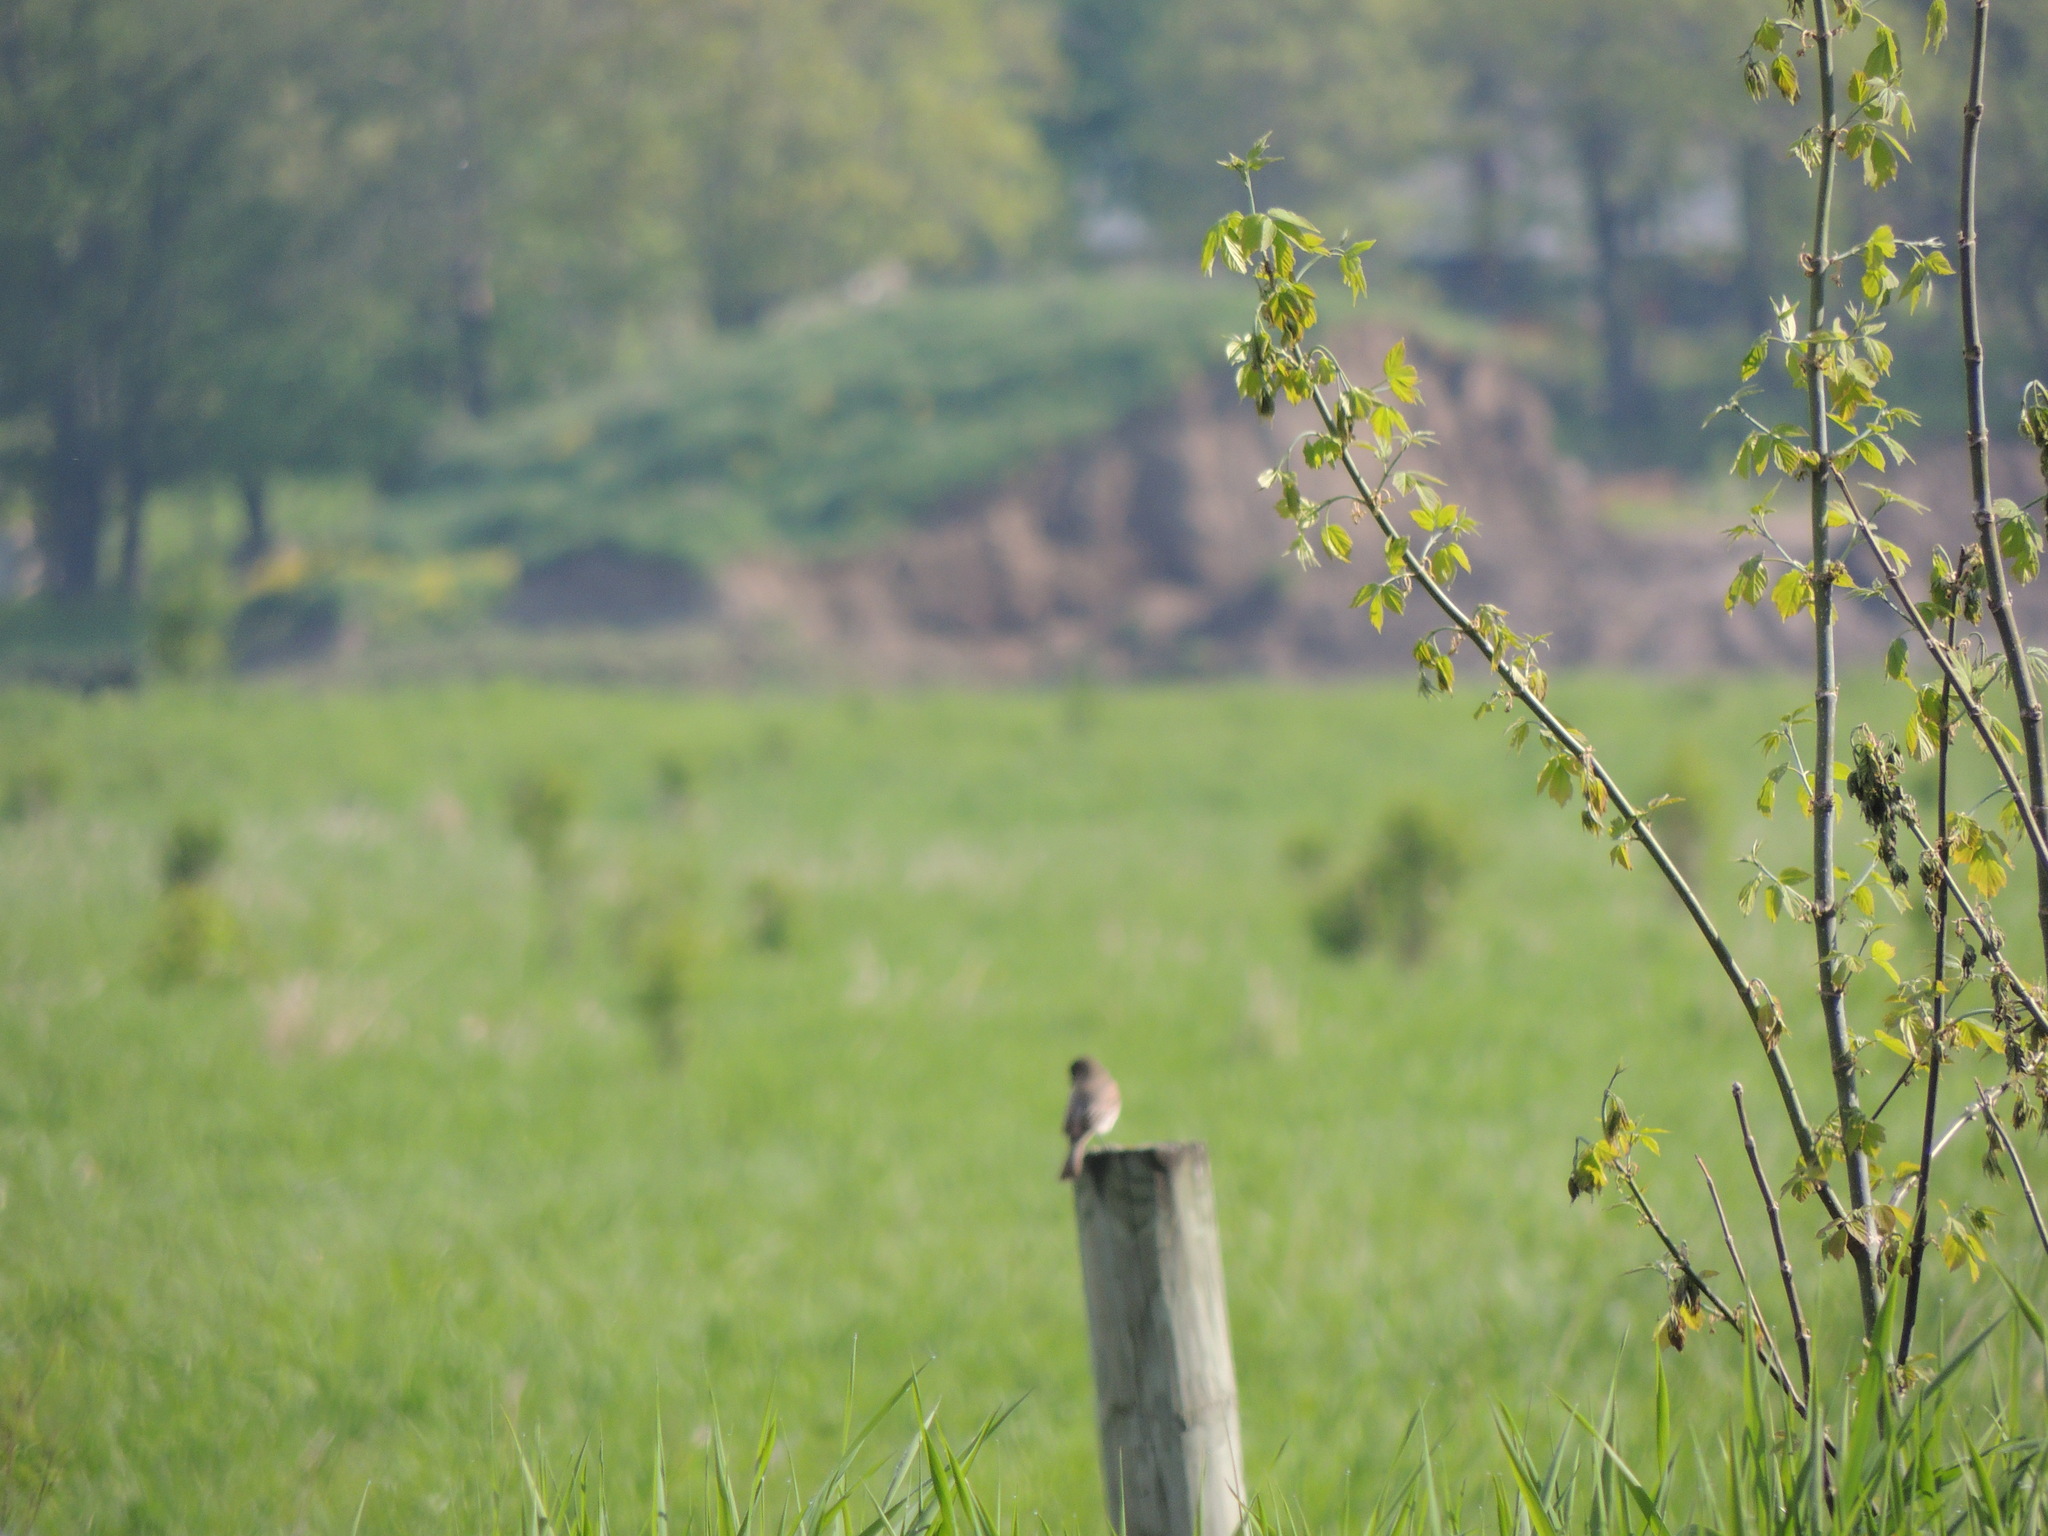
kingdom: Animalia
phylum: Chordata
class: Aves
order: Passeriformes
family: Tyrannidae
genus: Sayornis
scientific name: Sayornis phoebe
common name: Eastern phoebe
